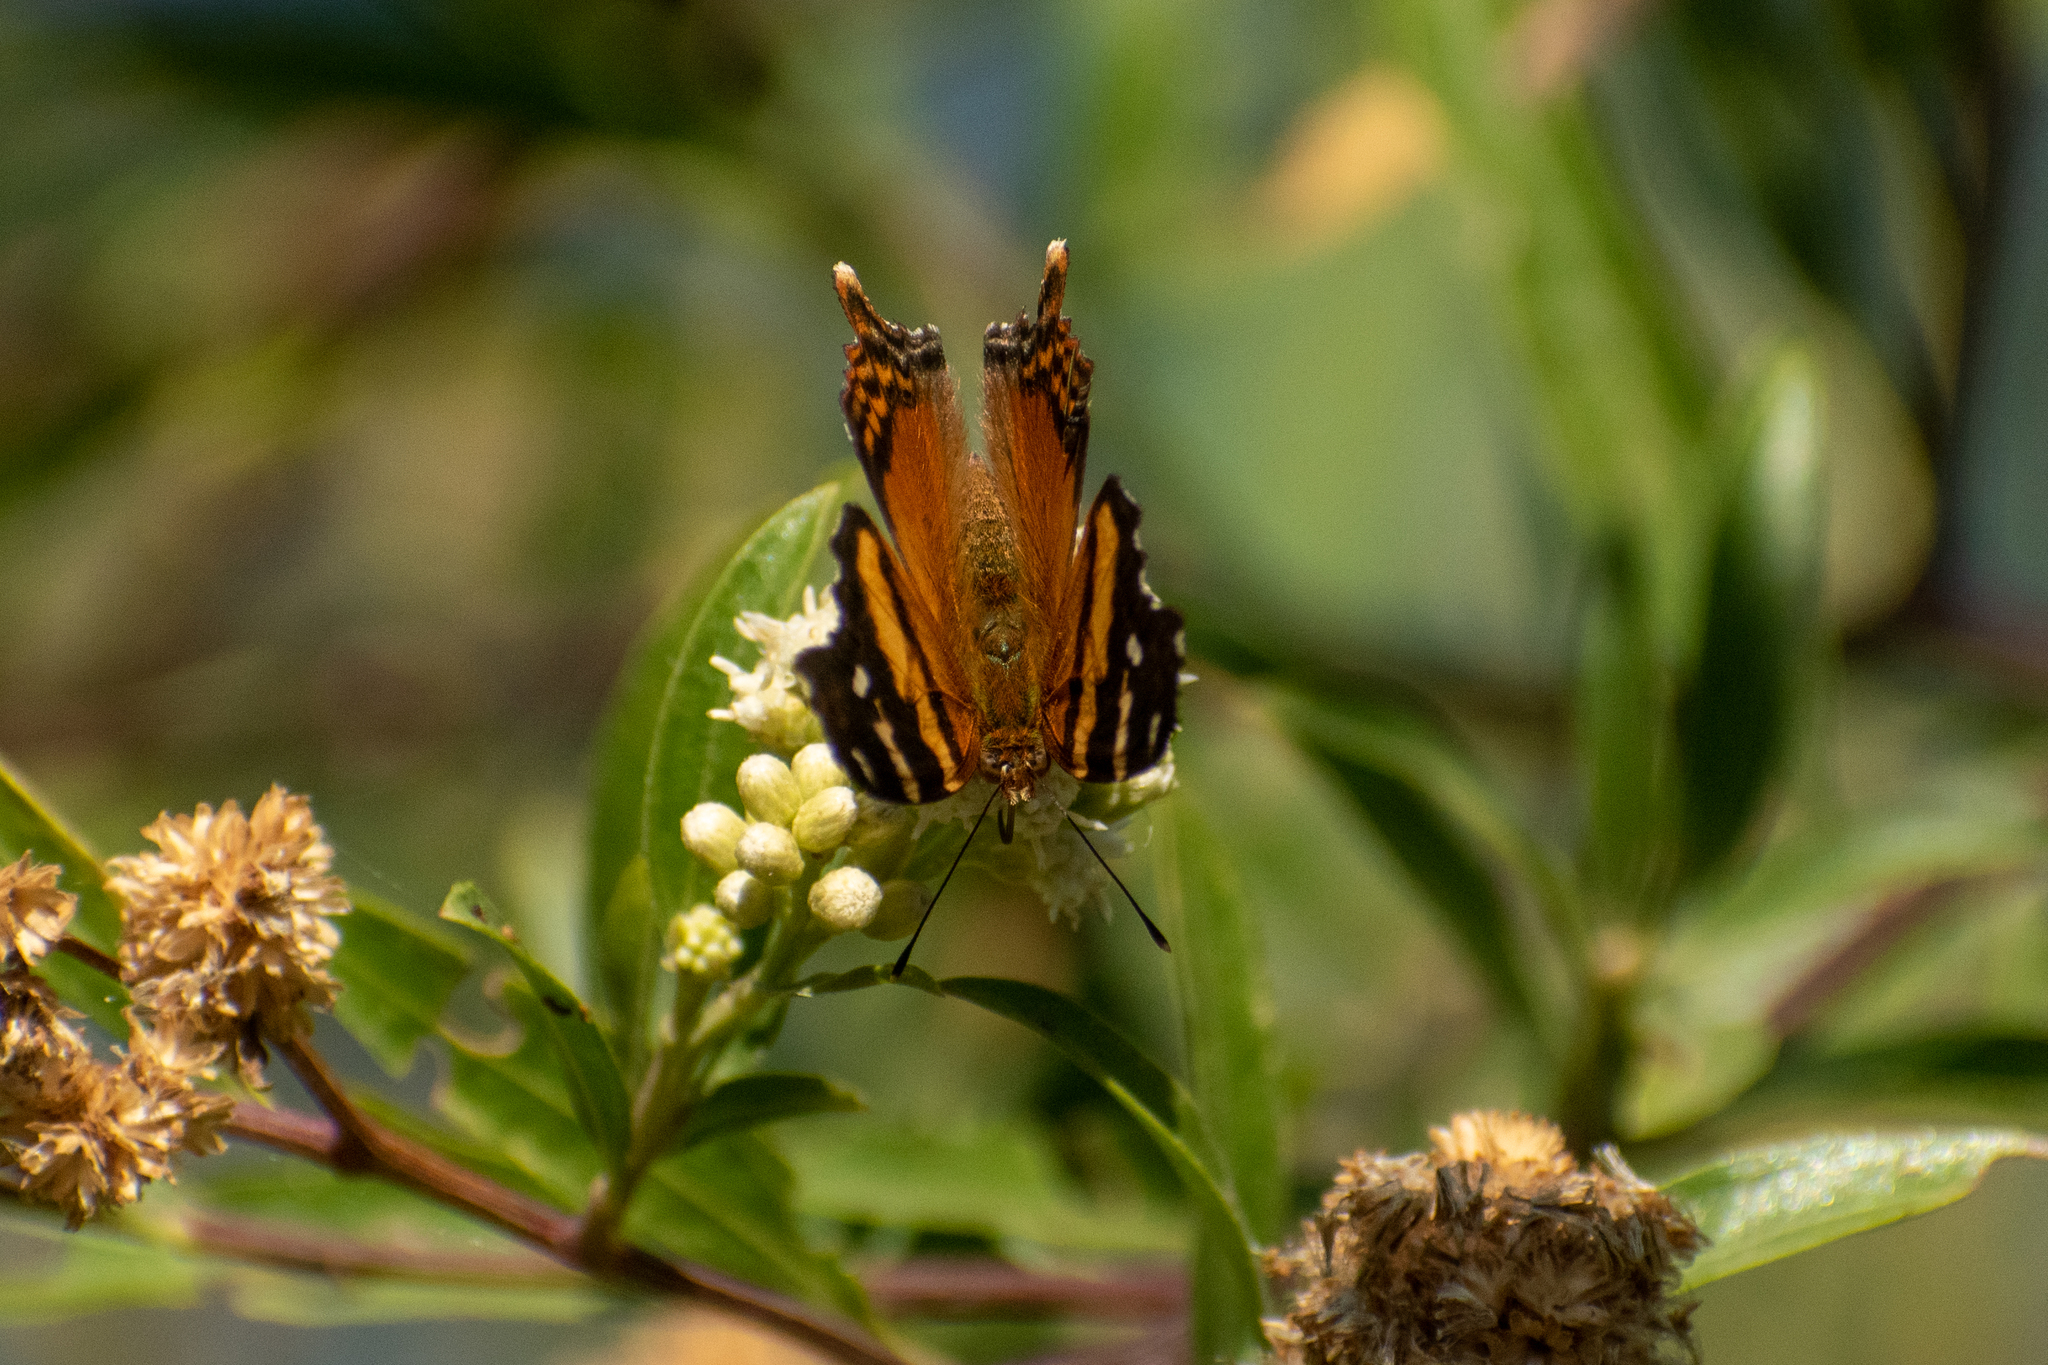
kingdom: Animalia
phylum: Arthropoda
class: Insecta
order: Lepidoptera
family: Nymphalidae
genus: Hypanartia
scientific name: Hypanartia bella
